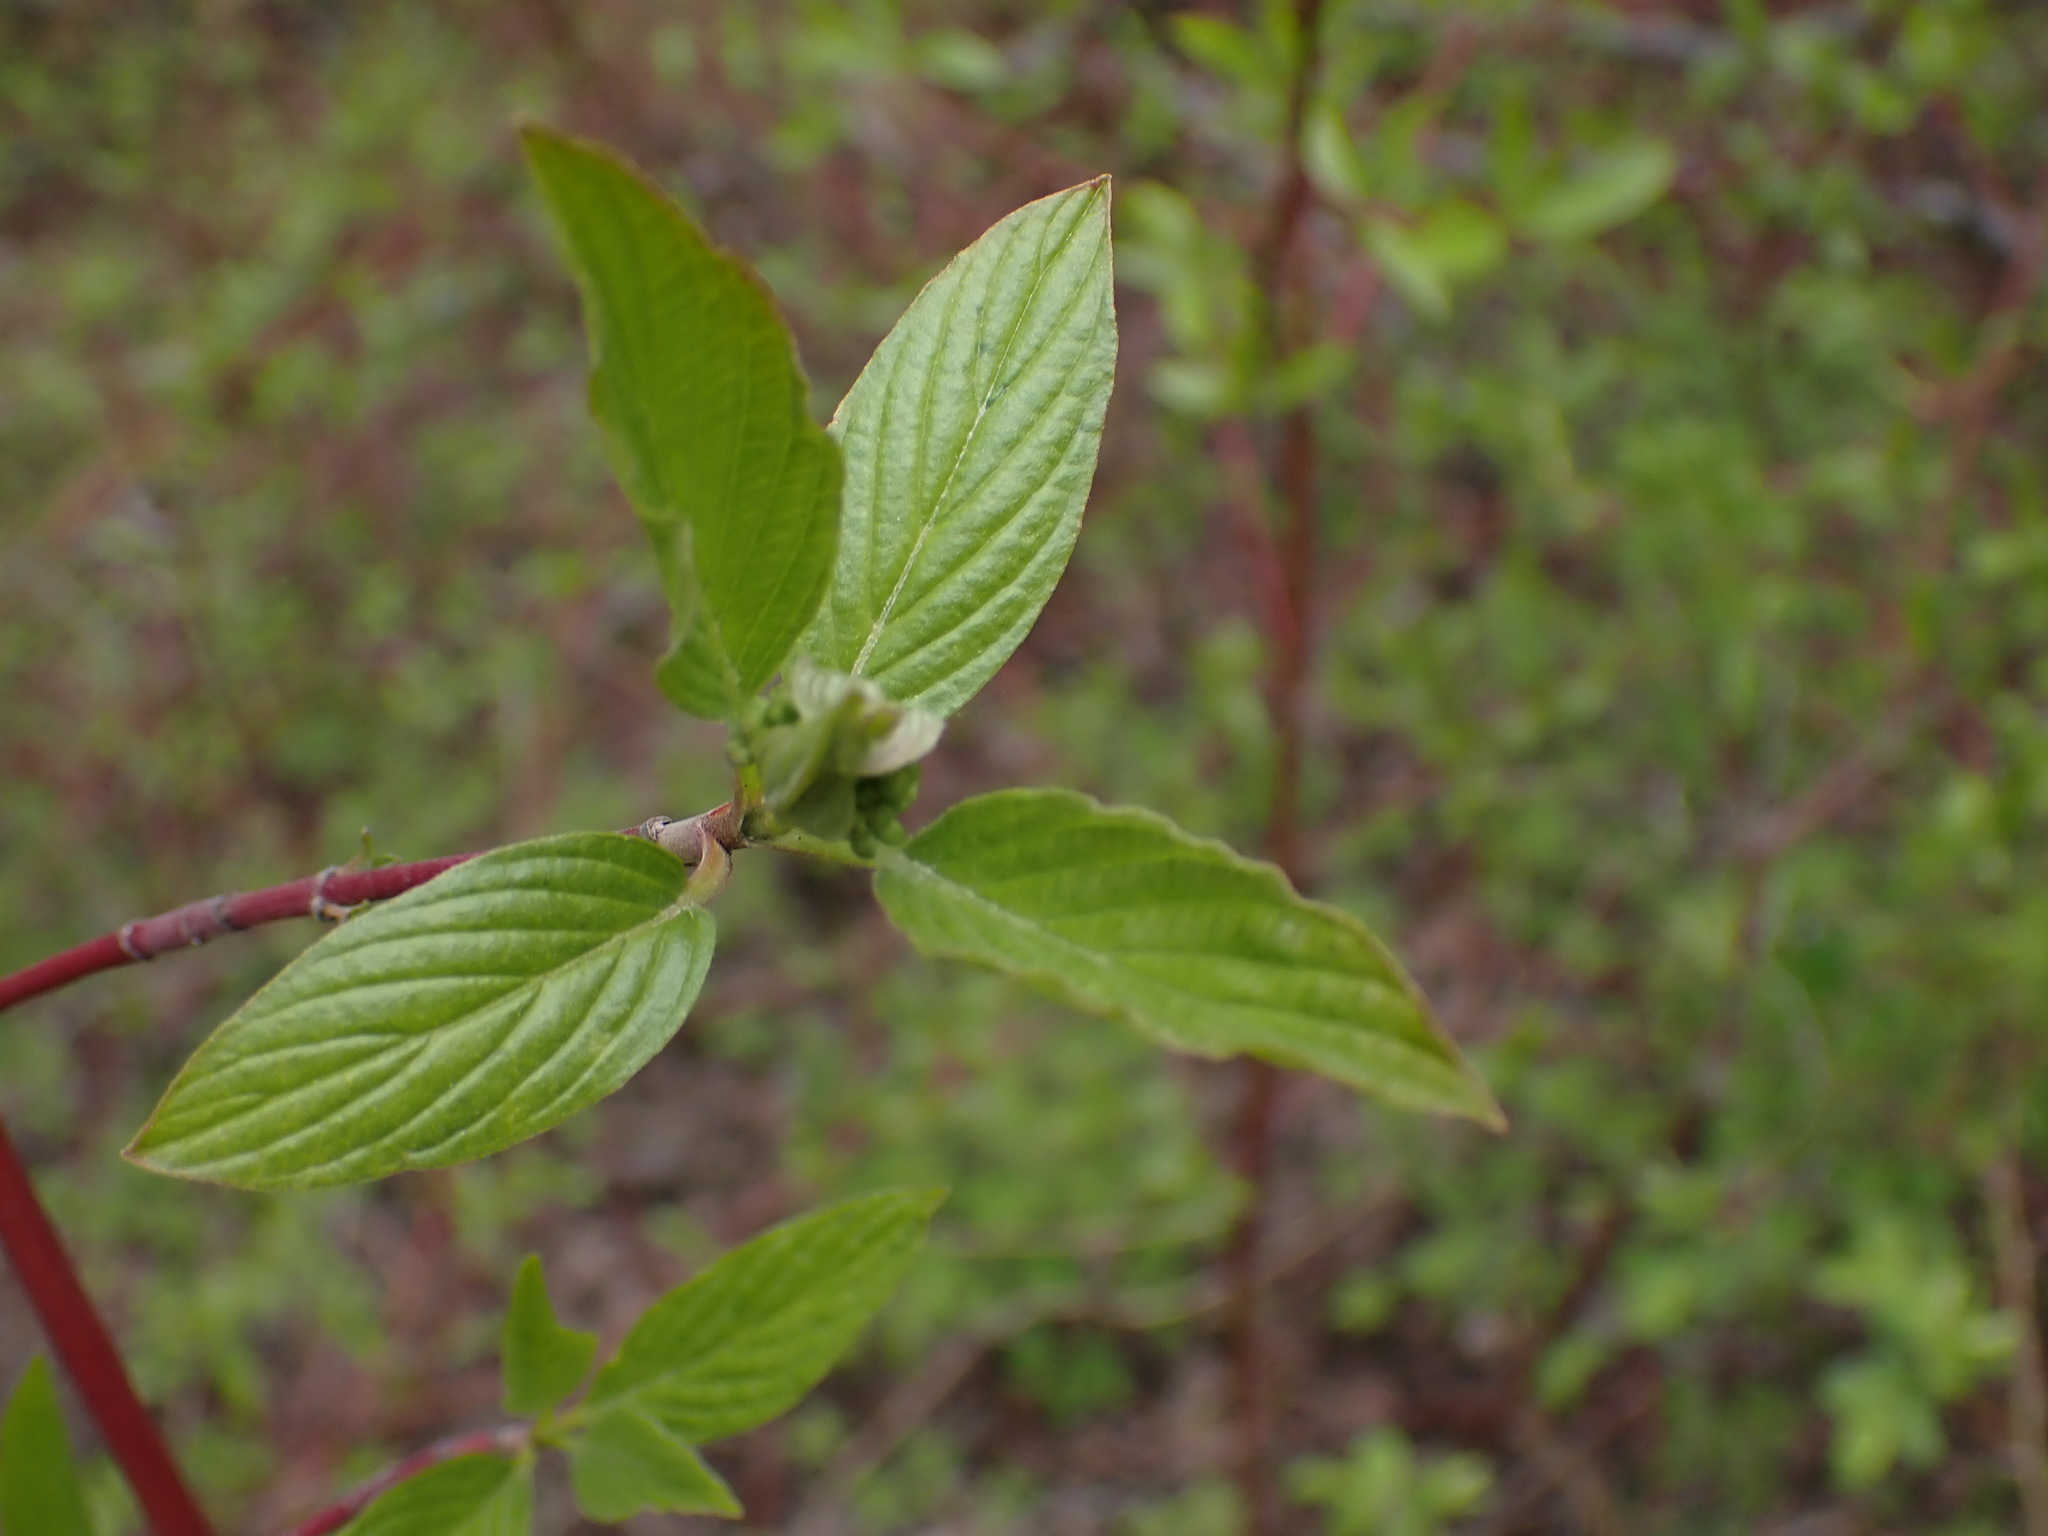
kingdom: Plantae
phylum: Tracheophyta
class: Magnoliopsida
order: Cornales
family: Cornaceae
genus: Cornus
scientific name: Cornus sericea
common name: Red-osier dogwood
